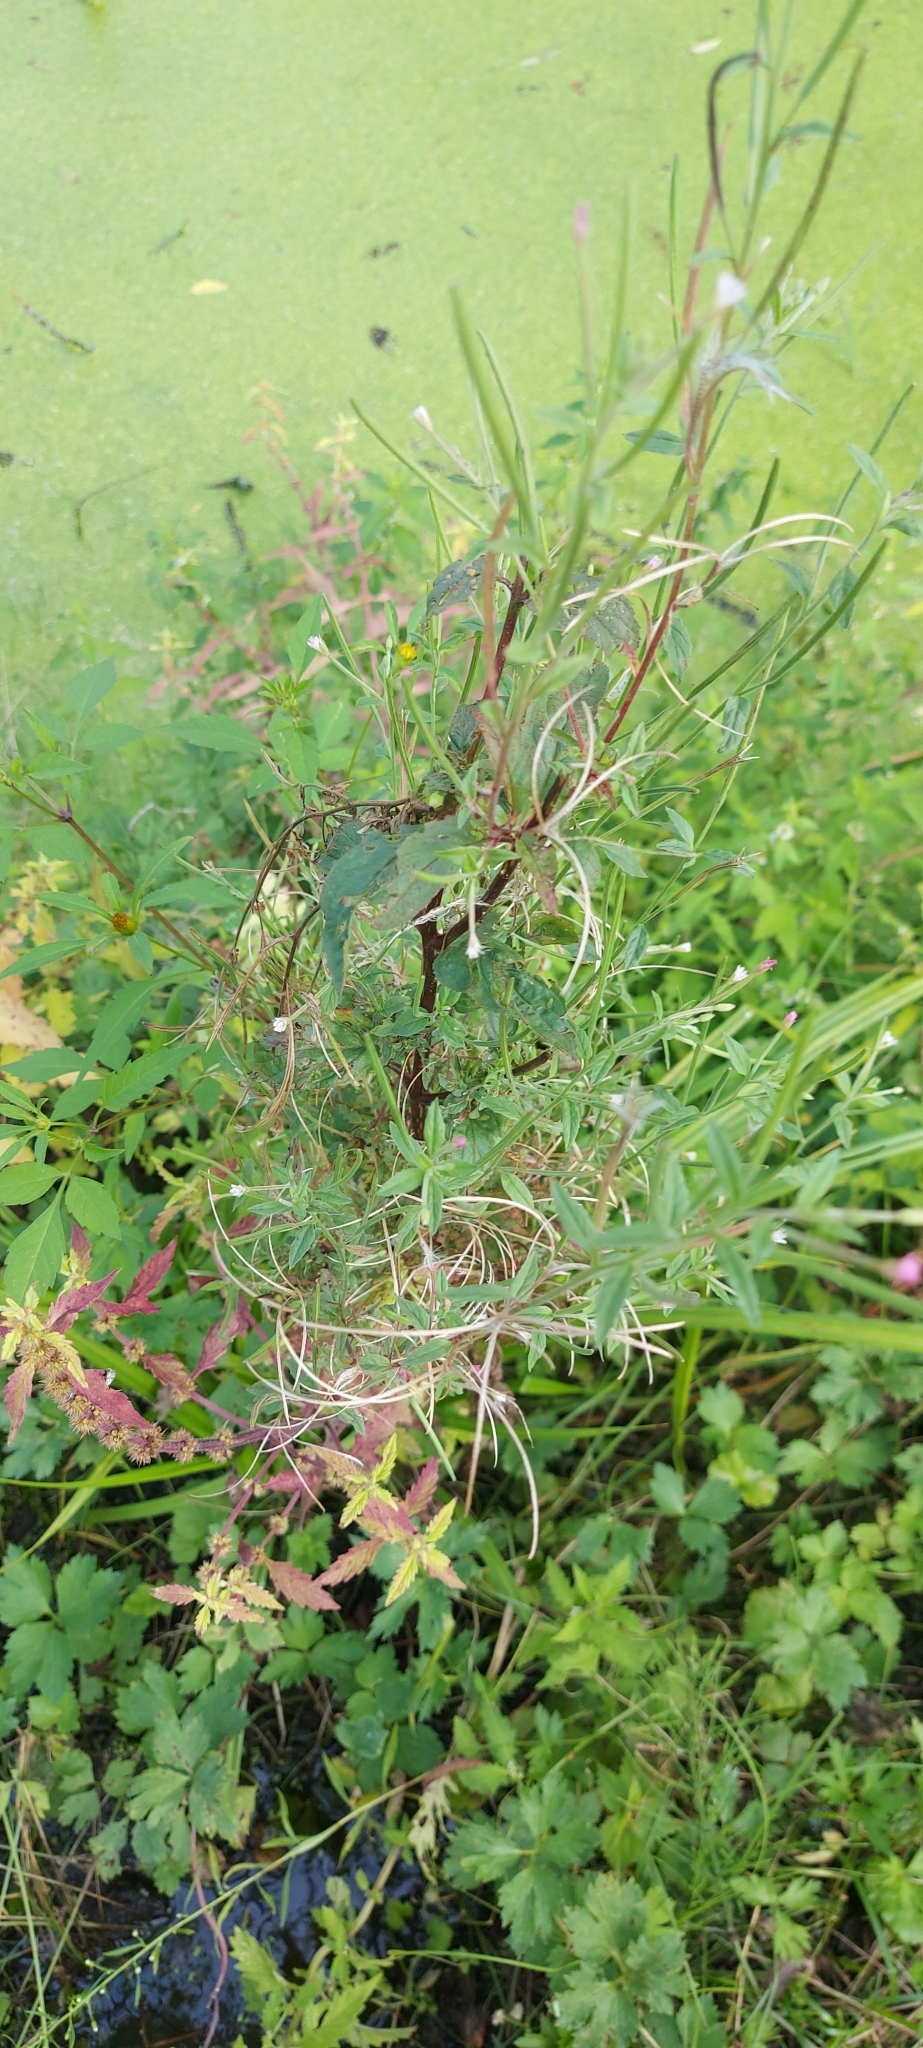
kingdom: Plantae
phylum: Tracheophyta
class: Magnoliopsida
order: Myrtales
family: Onagraceae
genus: Epilobium
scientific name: Epilobium ciliatum
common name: American willowherb
